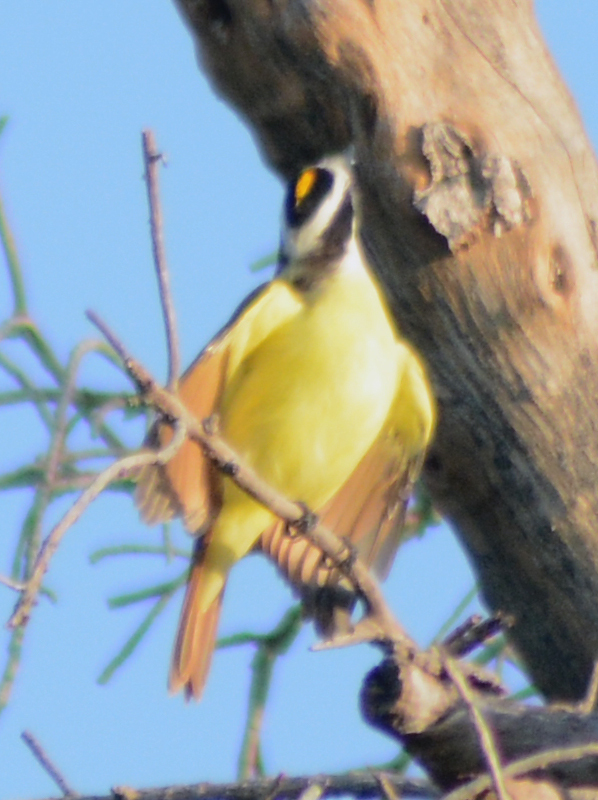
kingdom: Animalia
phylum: Chordata
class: Aves
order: Passeriformes
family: Tyrannidae
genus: Pitangus
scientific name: Pitangus sulphuratus
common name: Great kiskadee
